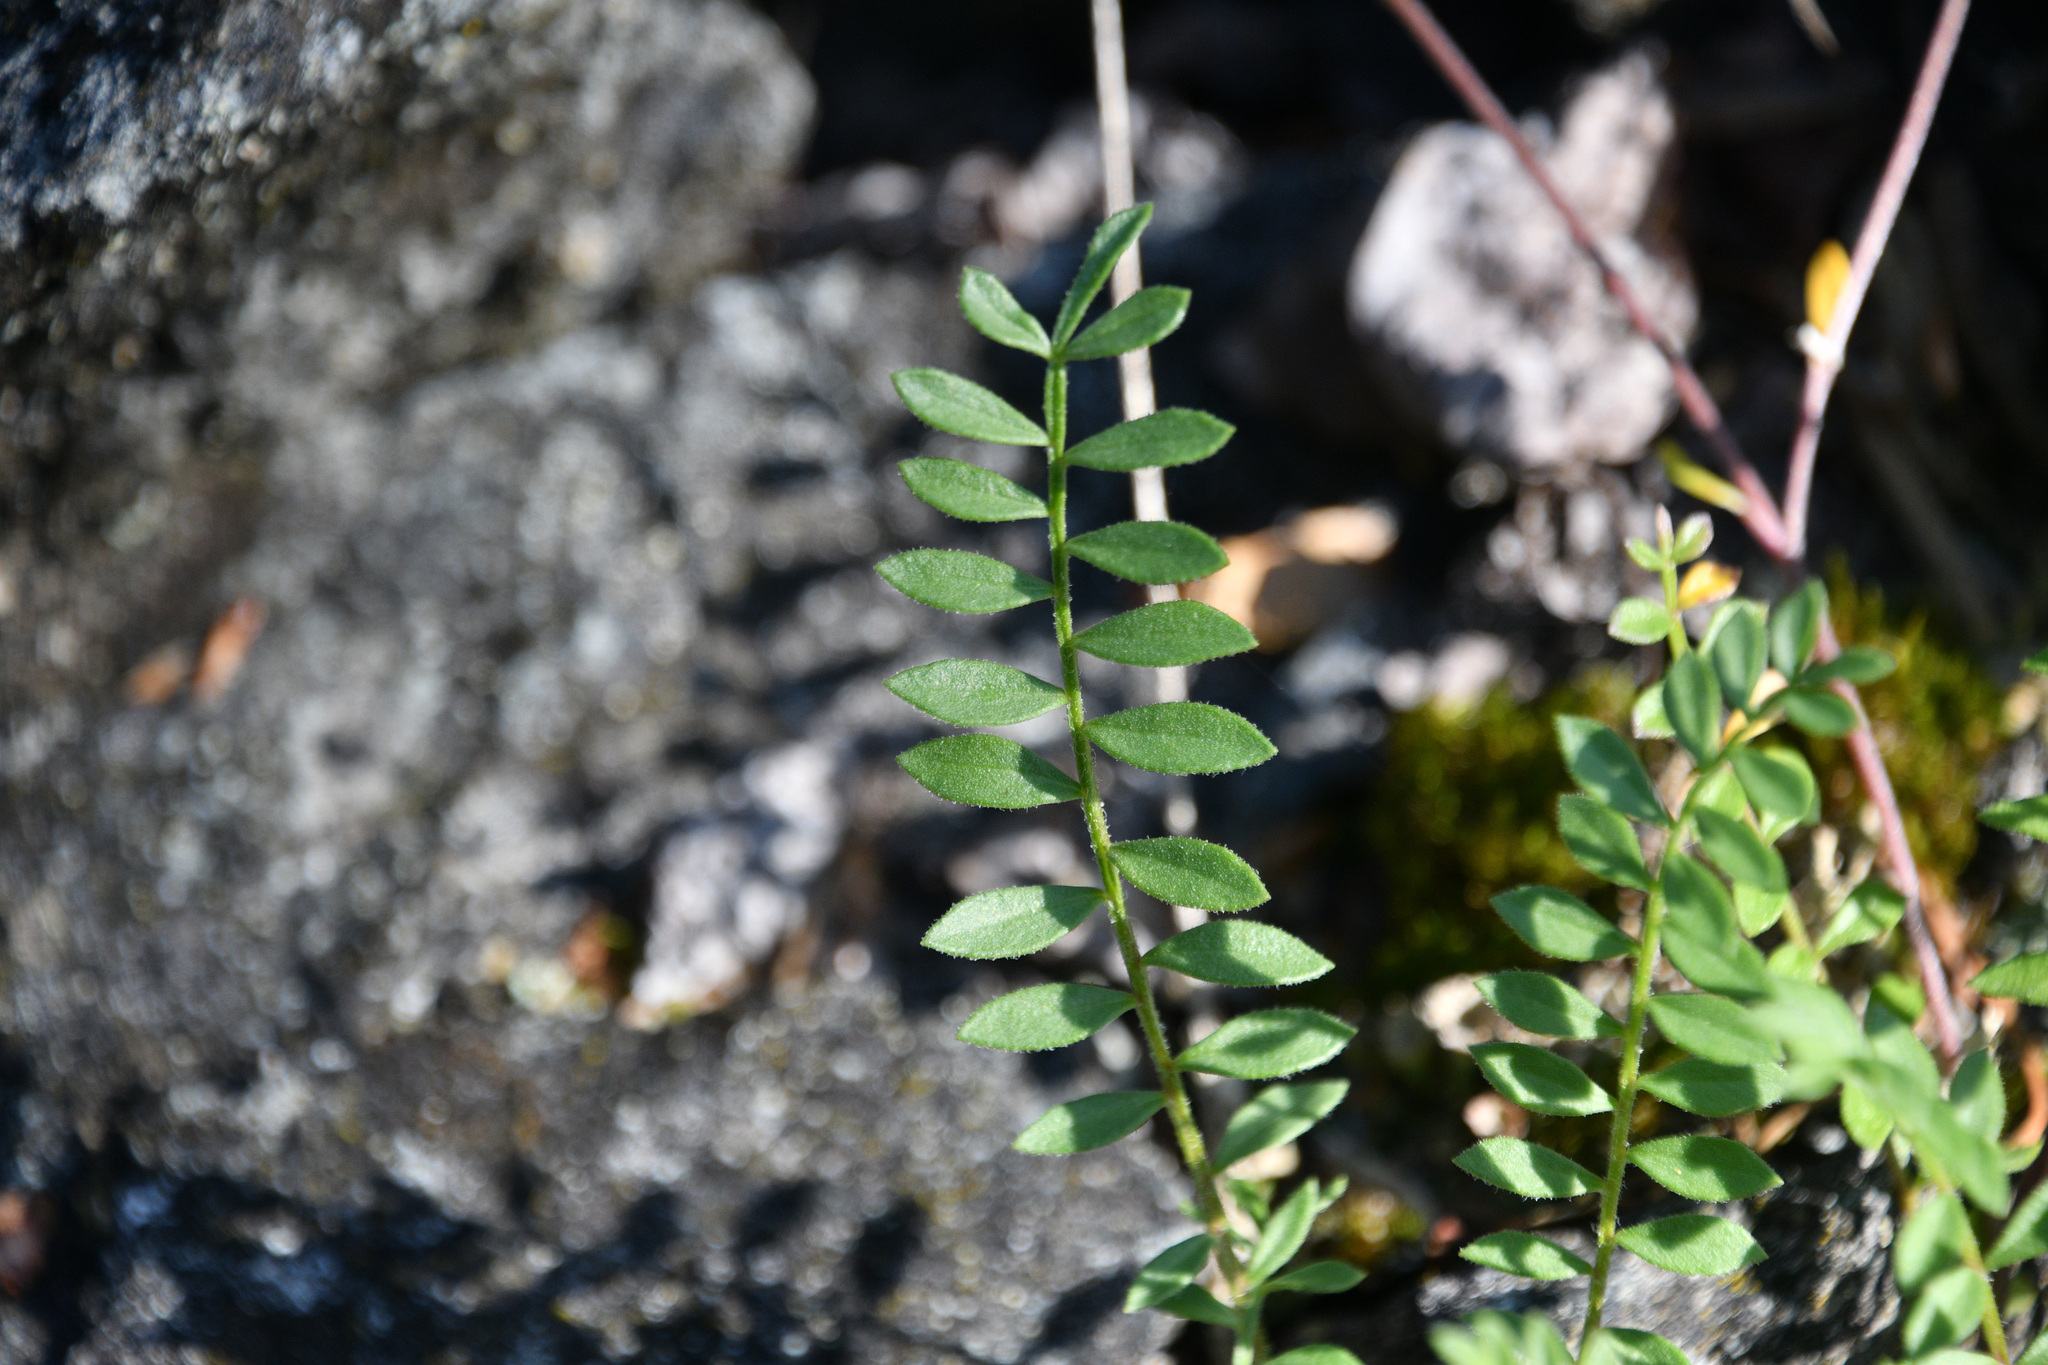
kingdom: Plantae
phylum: Tracheophyta
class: Magnoliopsida
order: Ericales
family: Polemoniaceae
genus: Polemonium
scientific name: Polemonium pulcherrimum
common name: Short jacob's-ladder
